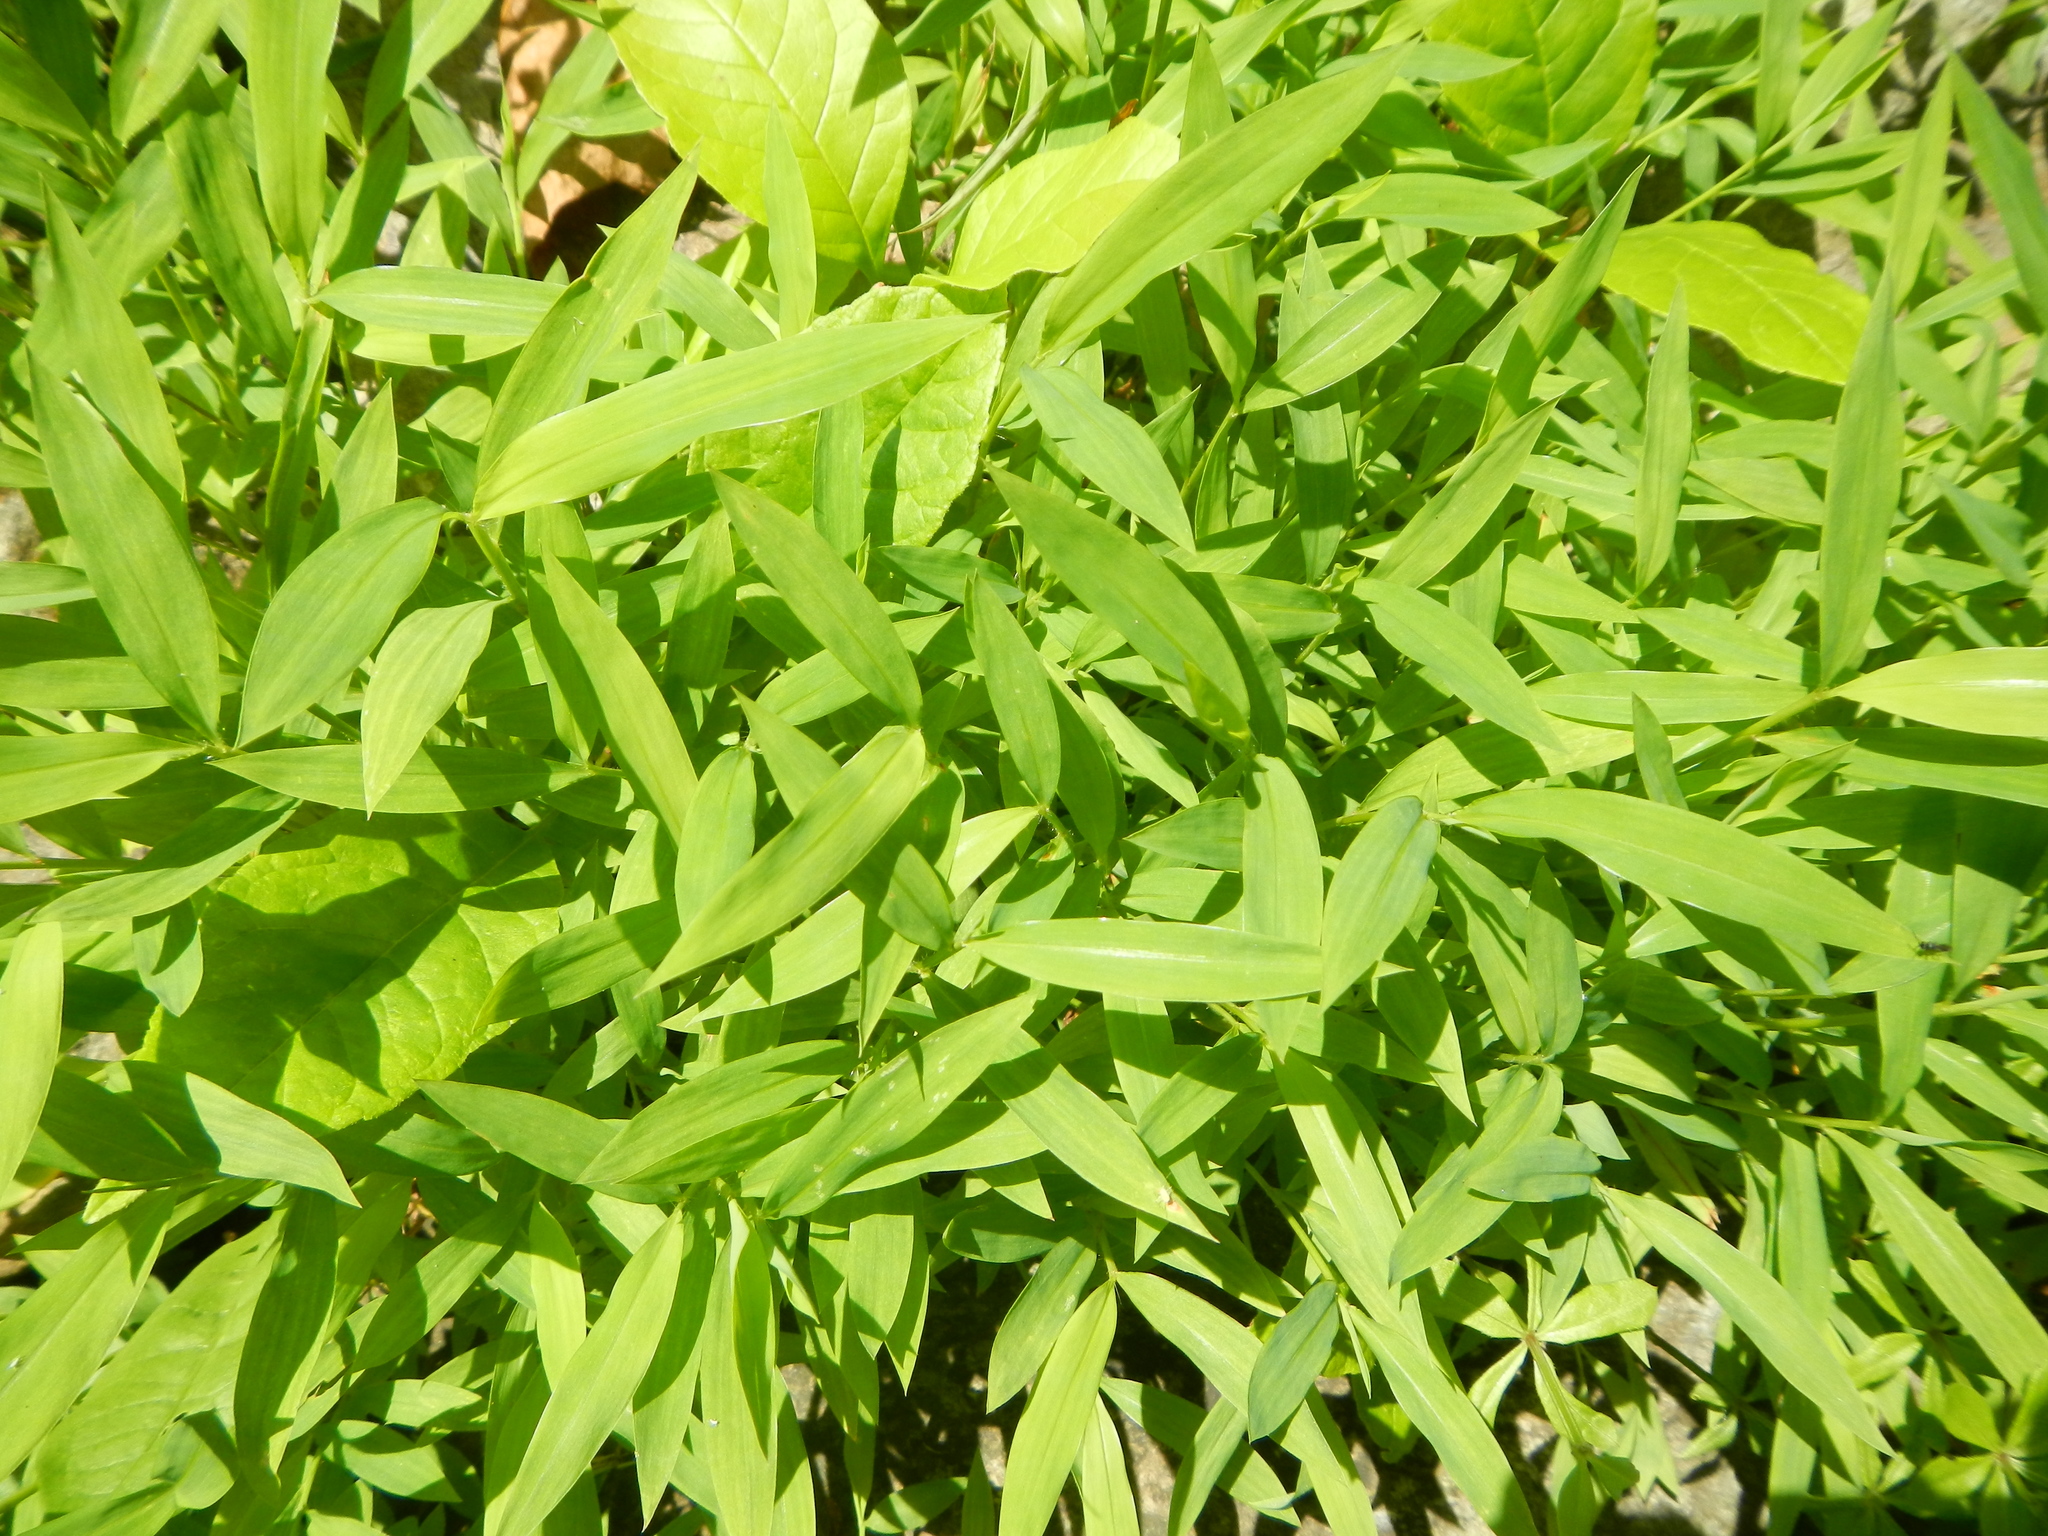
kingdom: Plantae
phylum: Tracheophyta
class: Liliopsida
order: Poales
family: Poaceae
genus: Microstegium
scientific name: Microstegium vimineum
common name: Japanese stiltgrass
